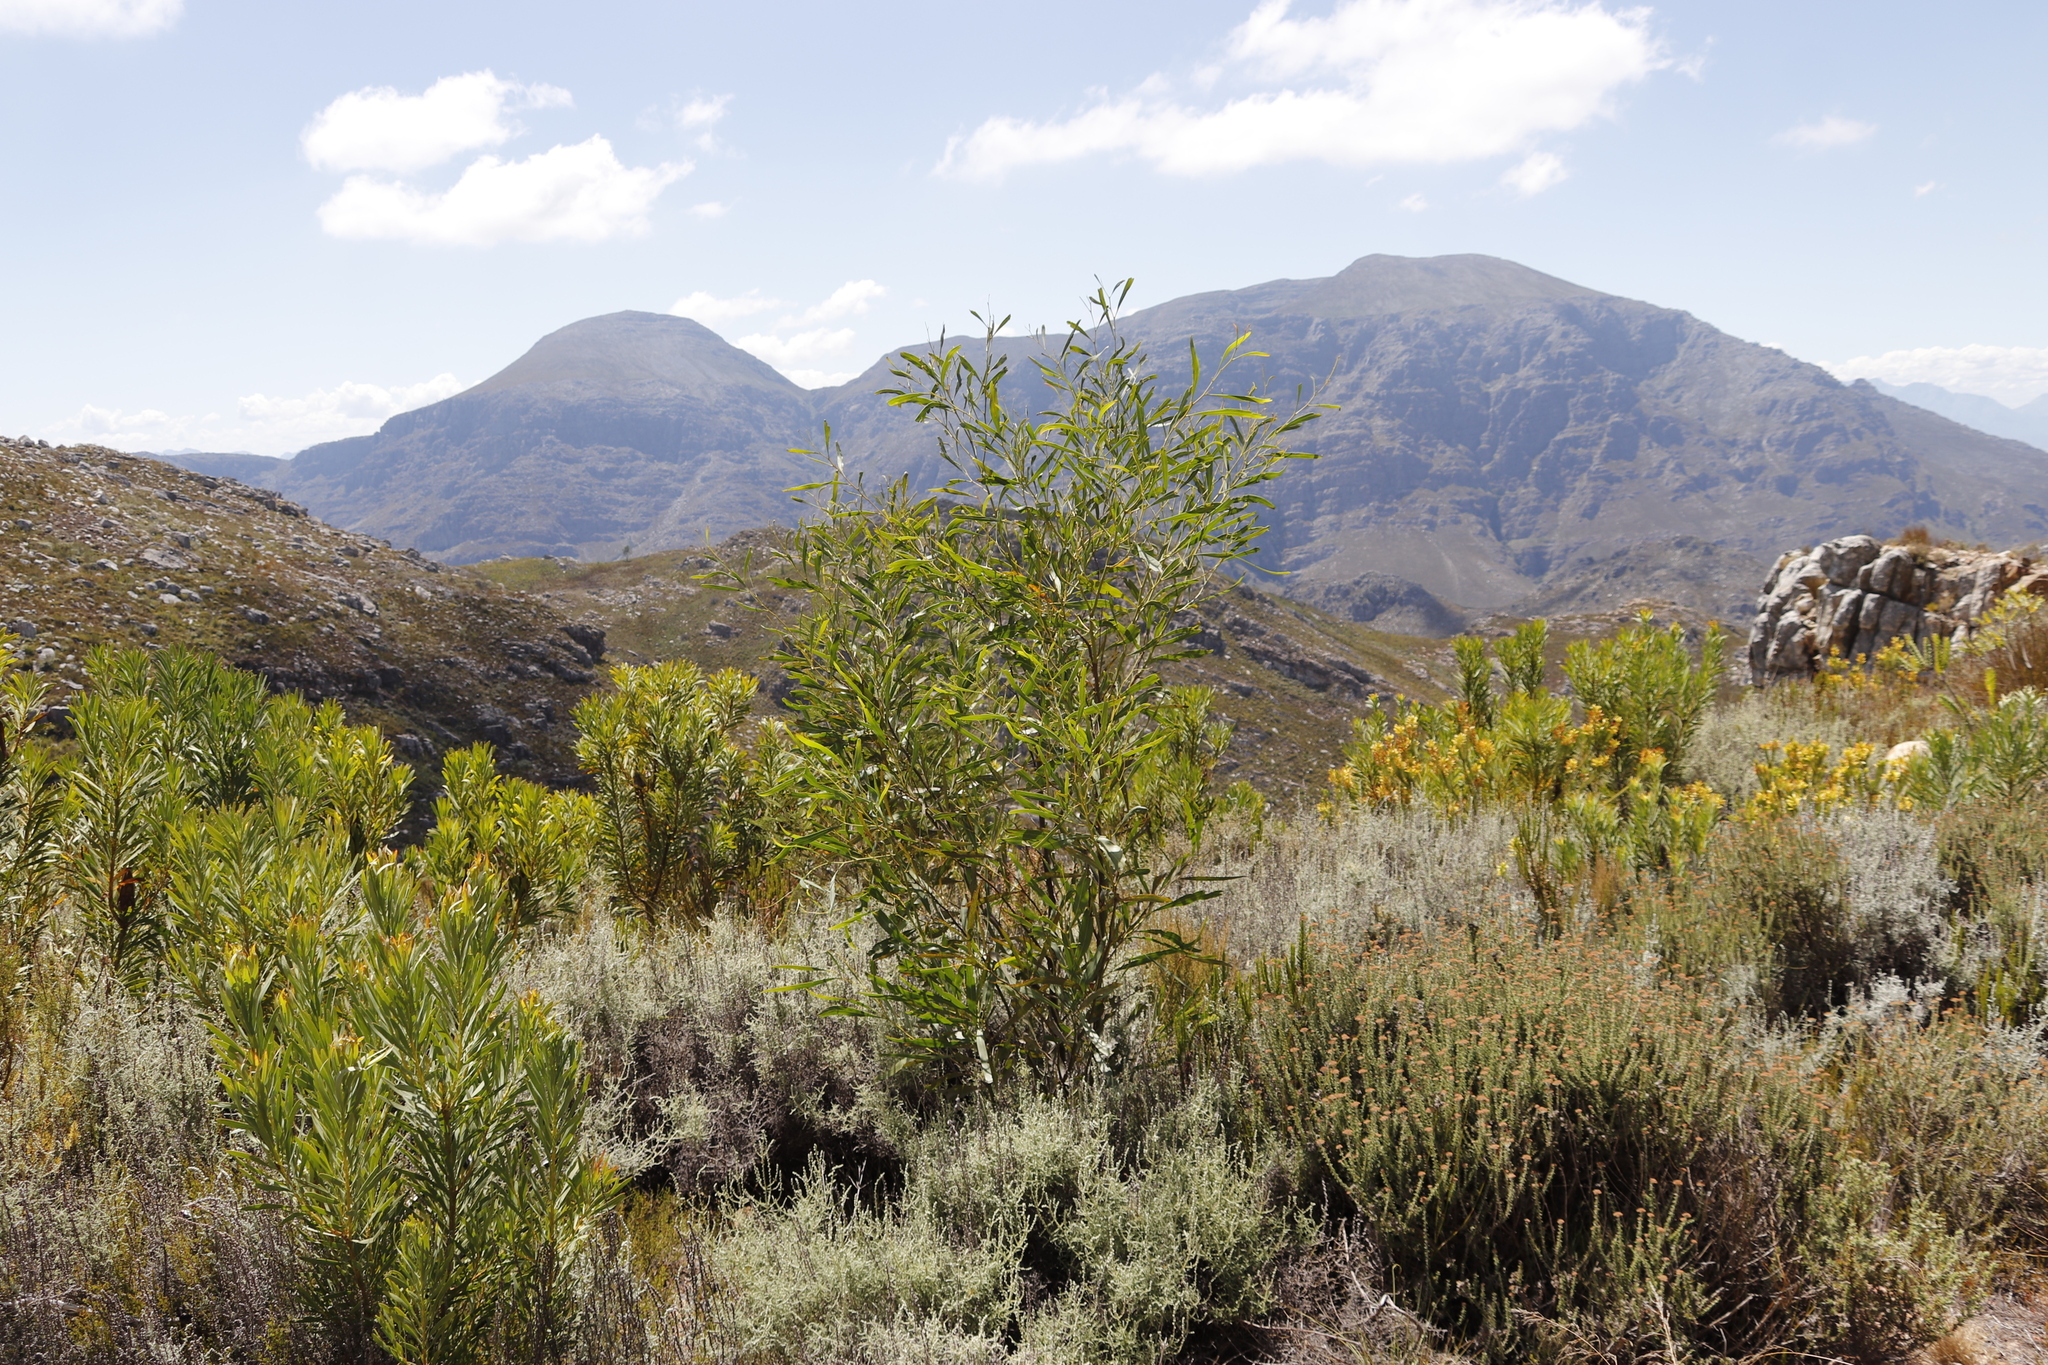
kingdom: Plantae
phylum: Tracheophyta
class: Magnoliopsida
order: Fabales
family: Fabaceae
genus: Acacia
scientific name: Acacia saligna
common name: Orange wattle
